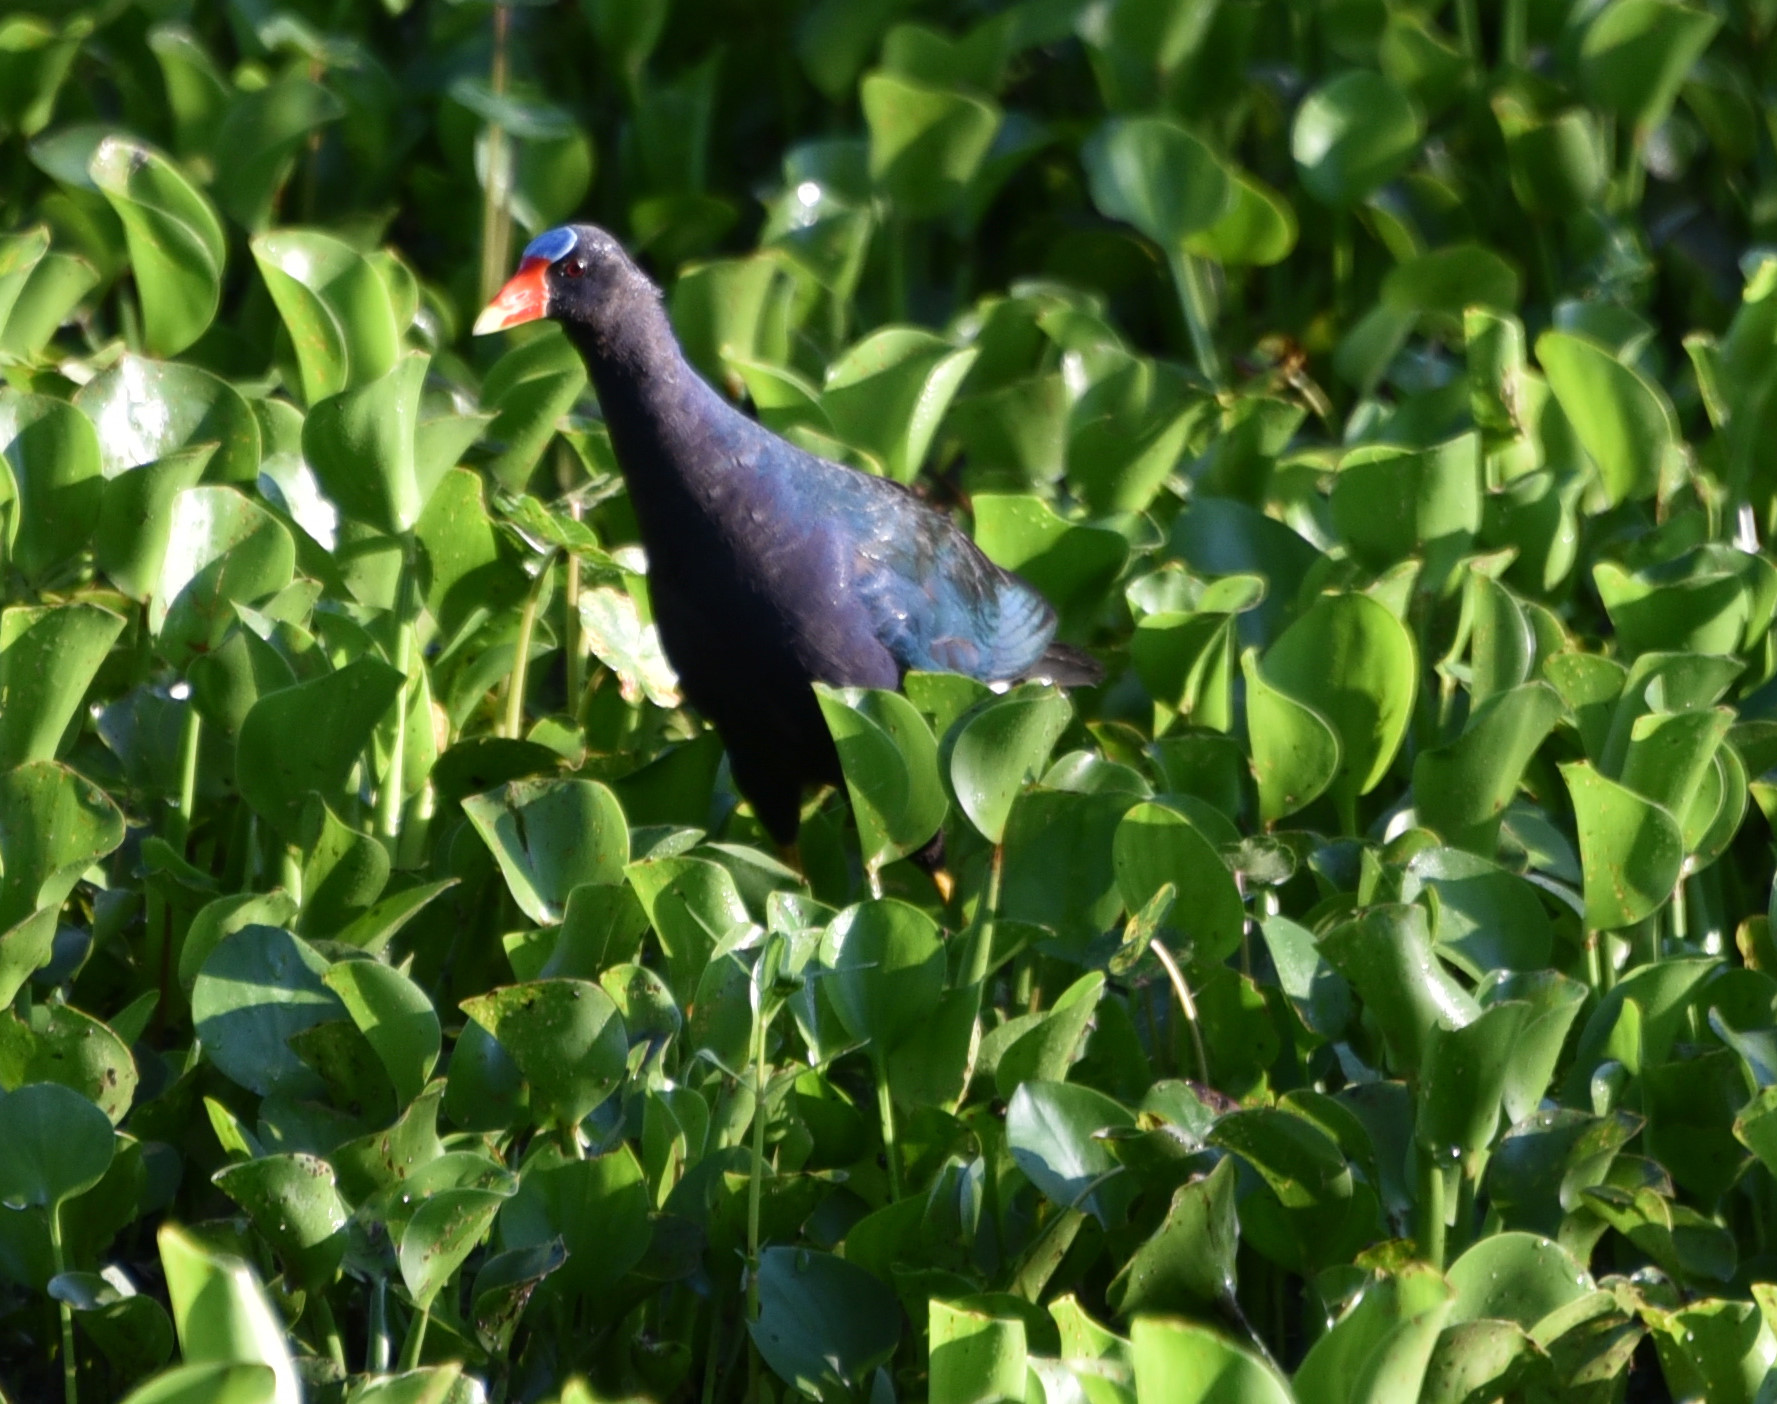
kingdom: Animalia
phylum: Chordata
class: Aves
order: Gruiformes
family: Rallidae
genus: Porphyrio
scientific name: Porphyrio martinica
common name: Purple gallinule
